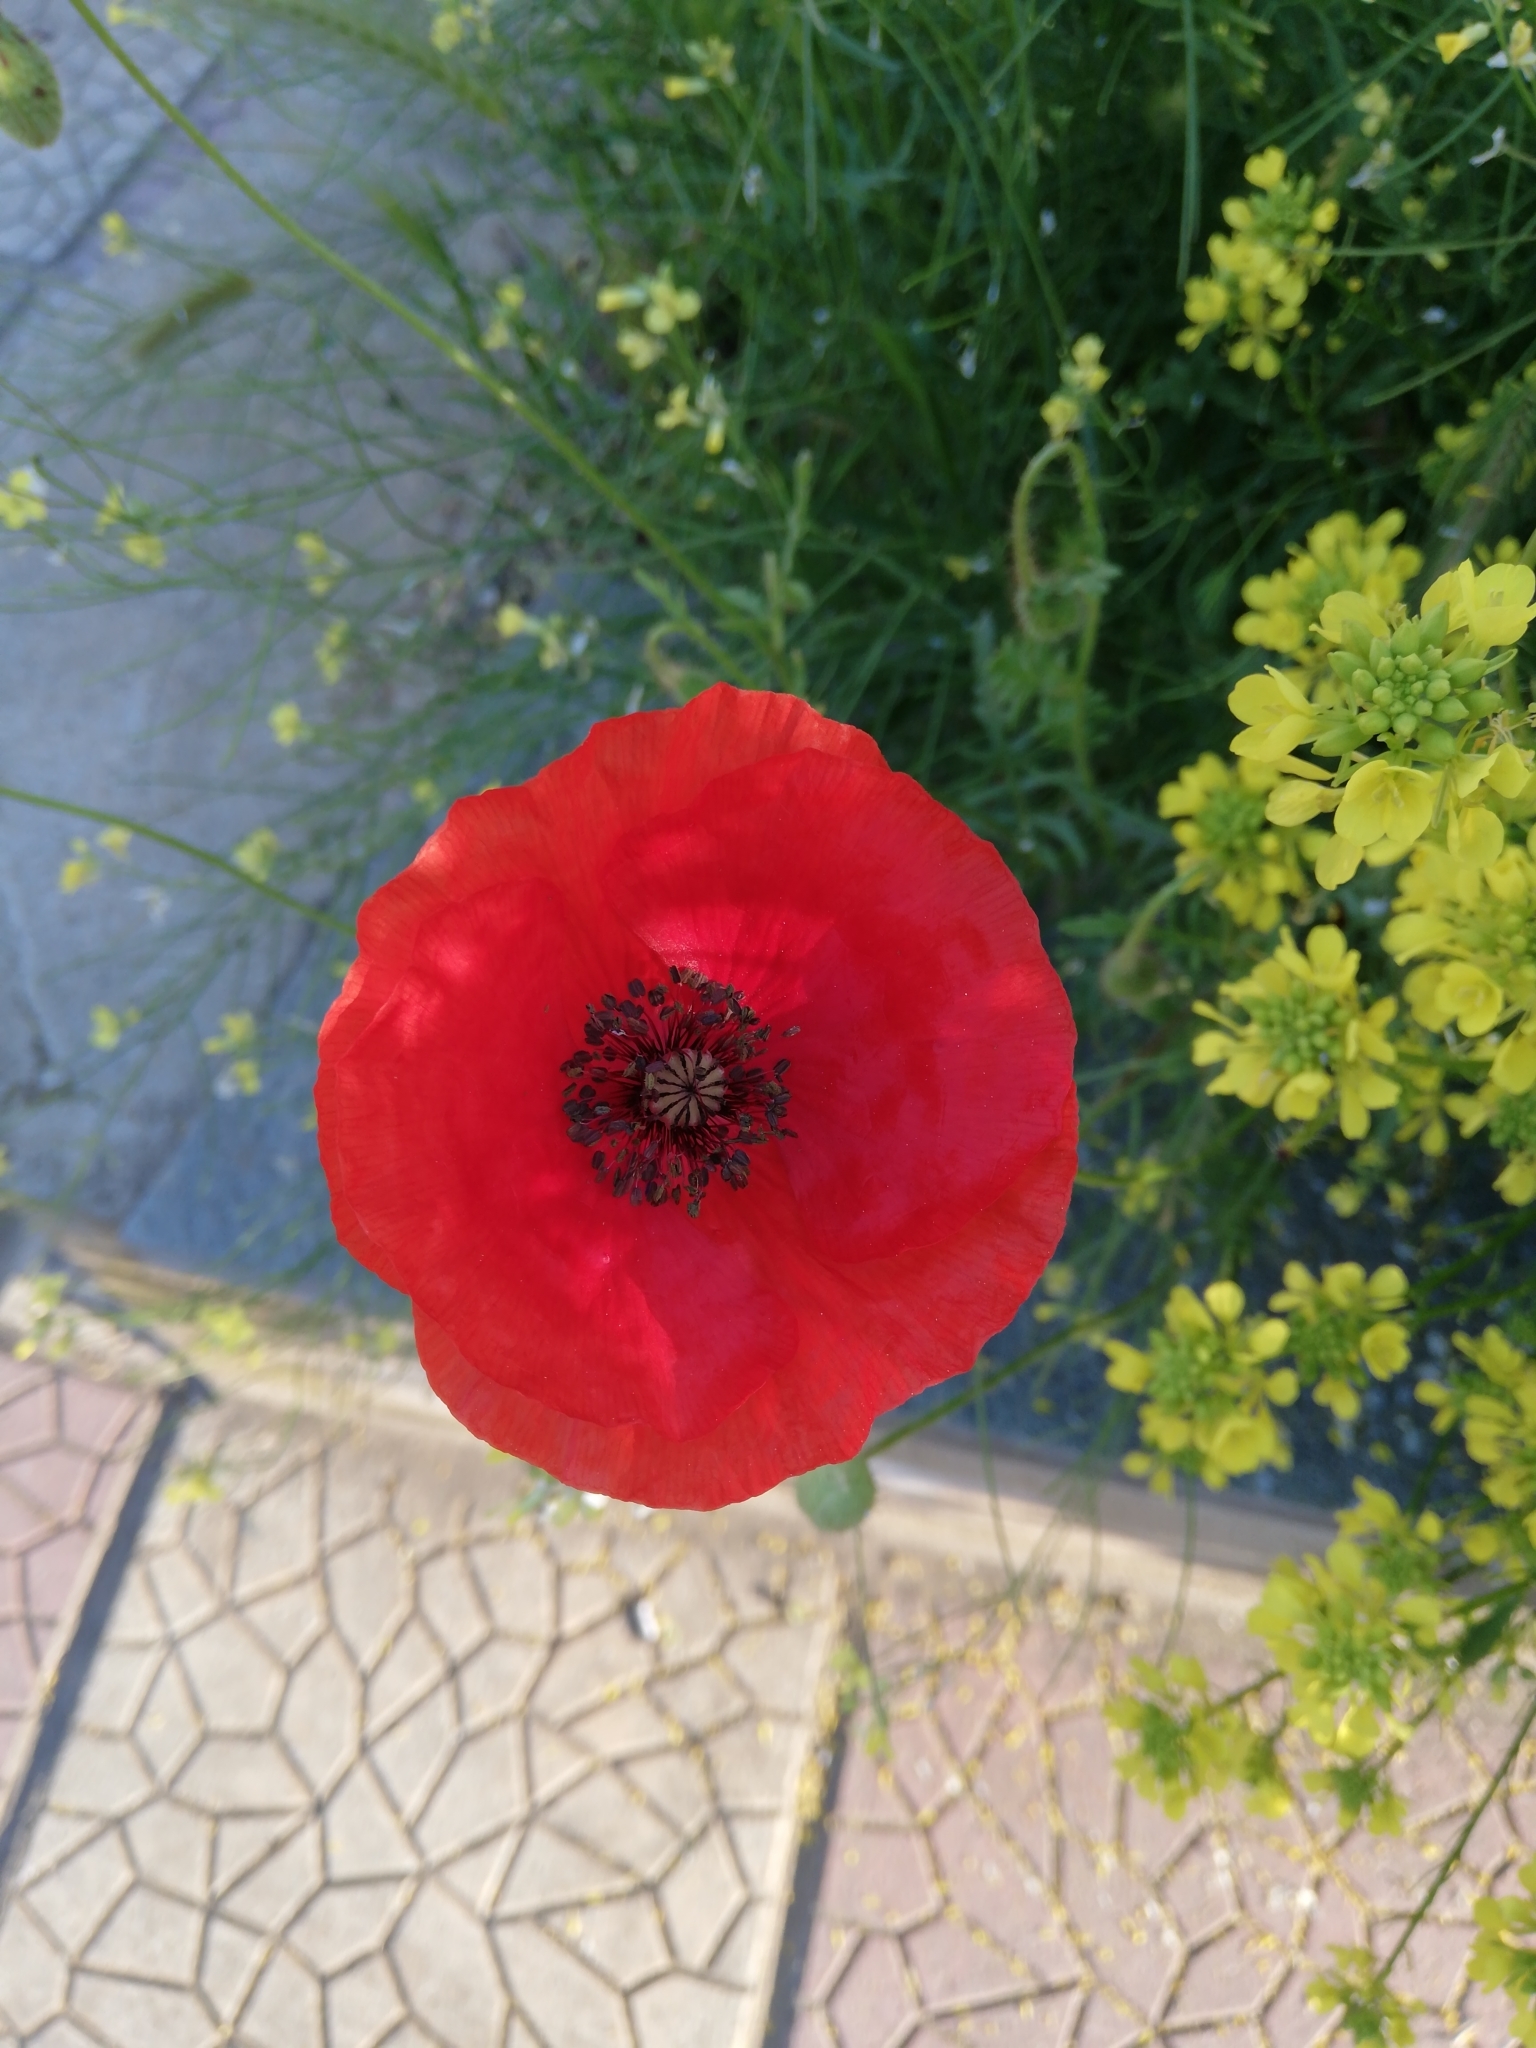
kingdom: Plantae
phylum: Tracheophyta
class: Magnoliopsida
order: Ranunculales
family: Papaveraceae
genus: Papaver
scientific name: Papaver rhoeas
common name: Corn poppy
